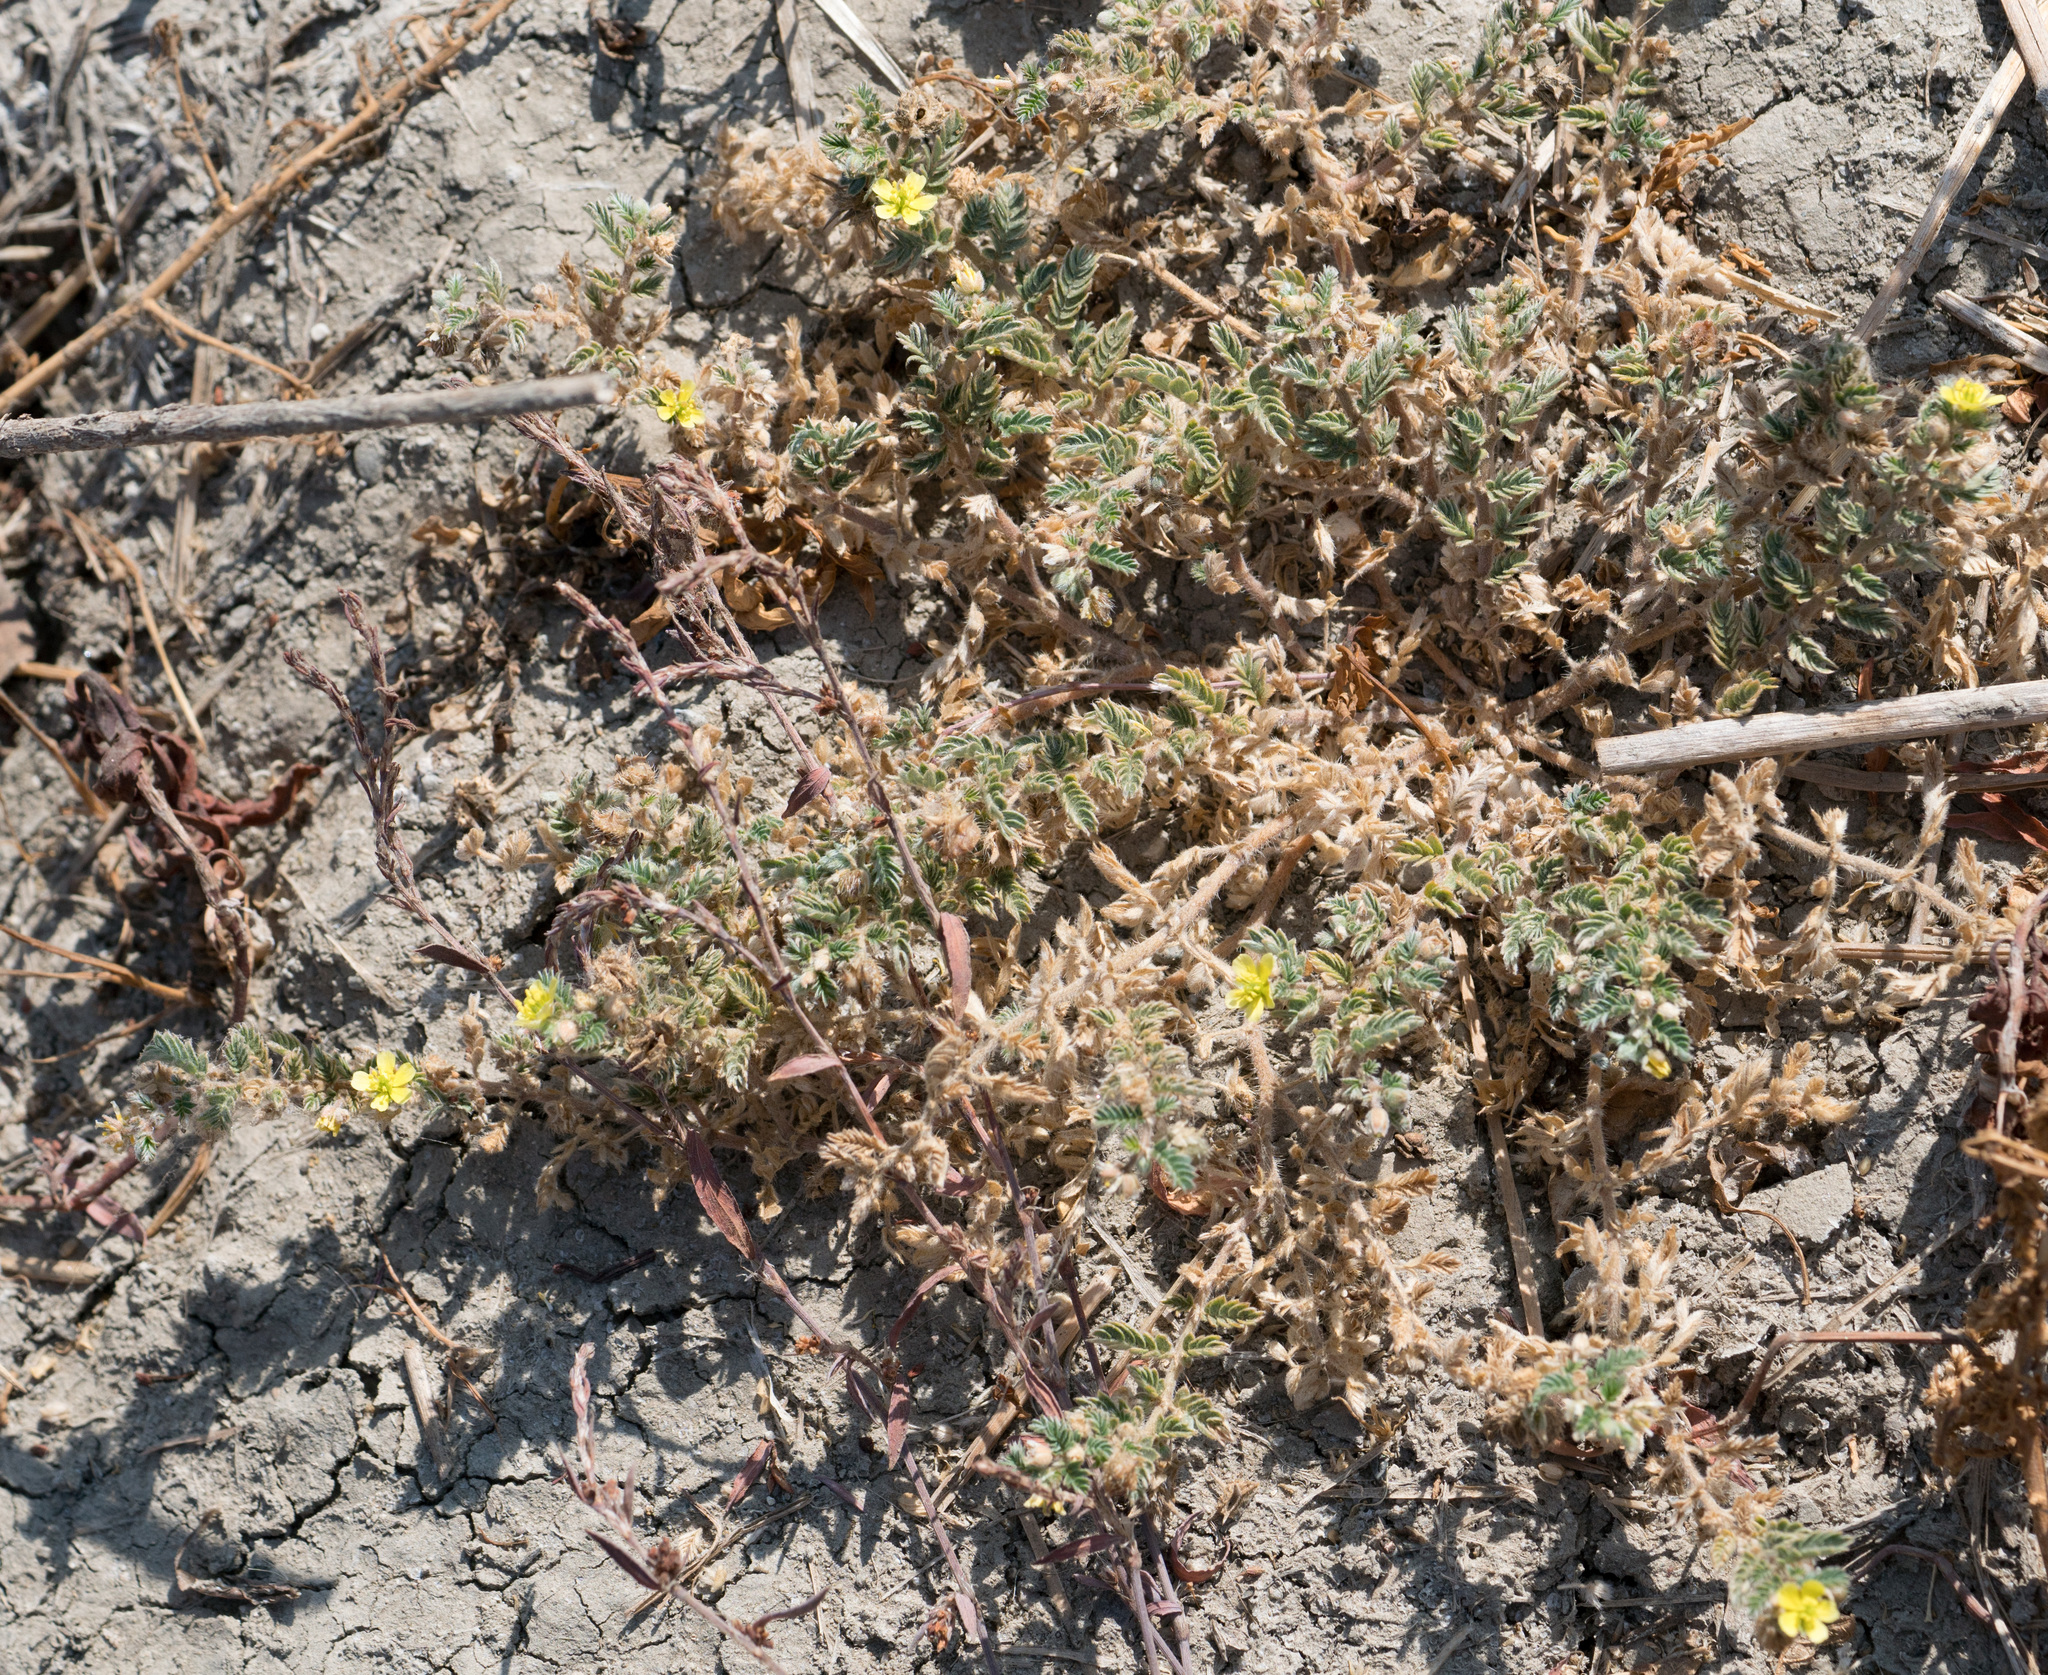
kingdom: Plantae
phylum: Tracheophyta
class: Magnoliopsida
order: Zygophyllales
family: Zygophyllaceae
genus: Tribulus
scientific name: Tribulus terrestris
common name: Puncturevine
